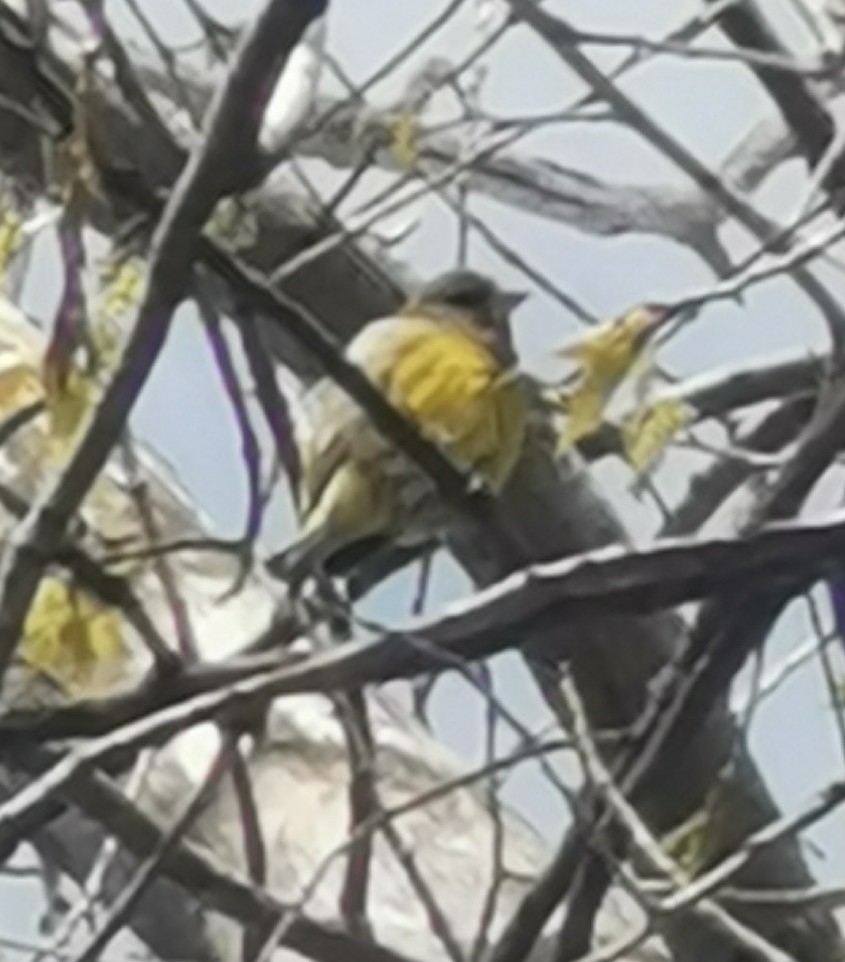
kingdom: Plantae
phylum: Tracheophyta
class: Liliopsida
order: Poales
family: Poaceae
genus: Chloris
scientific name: Chloris chloris
